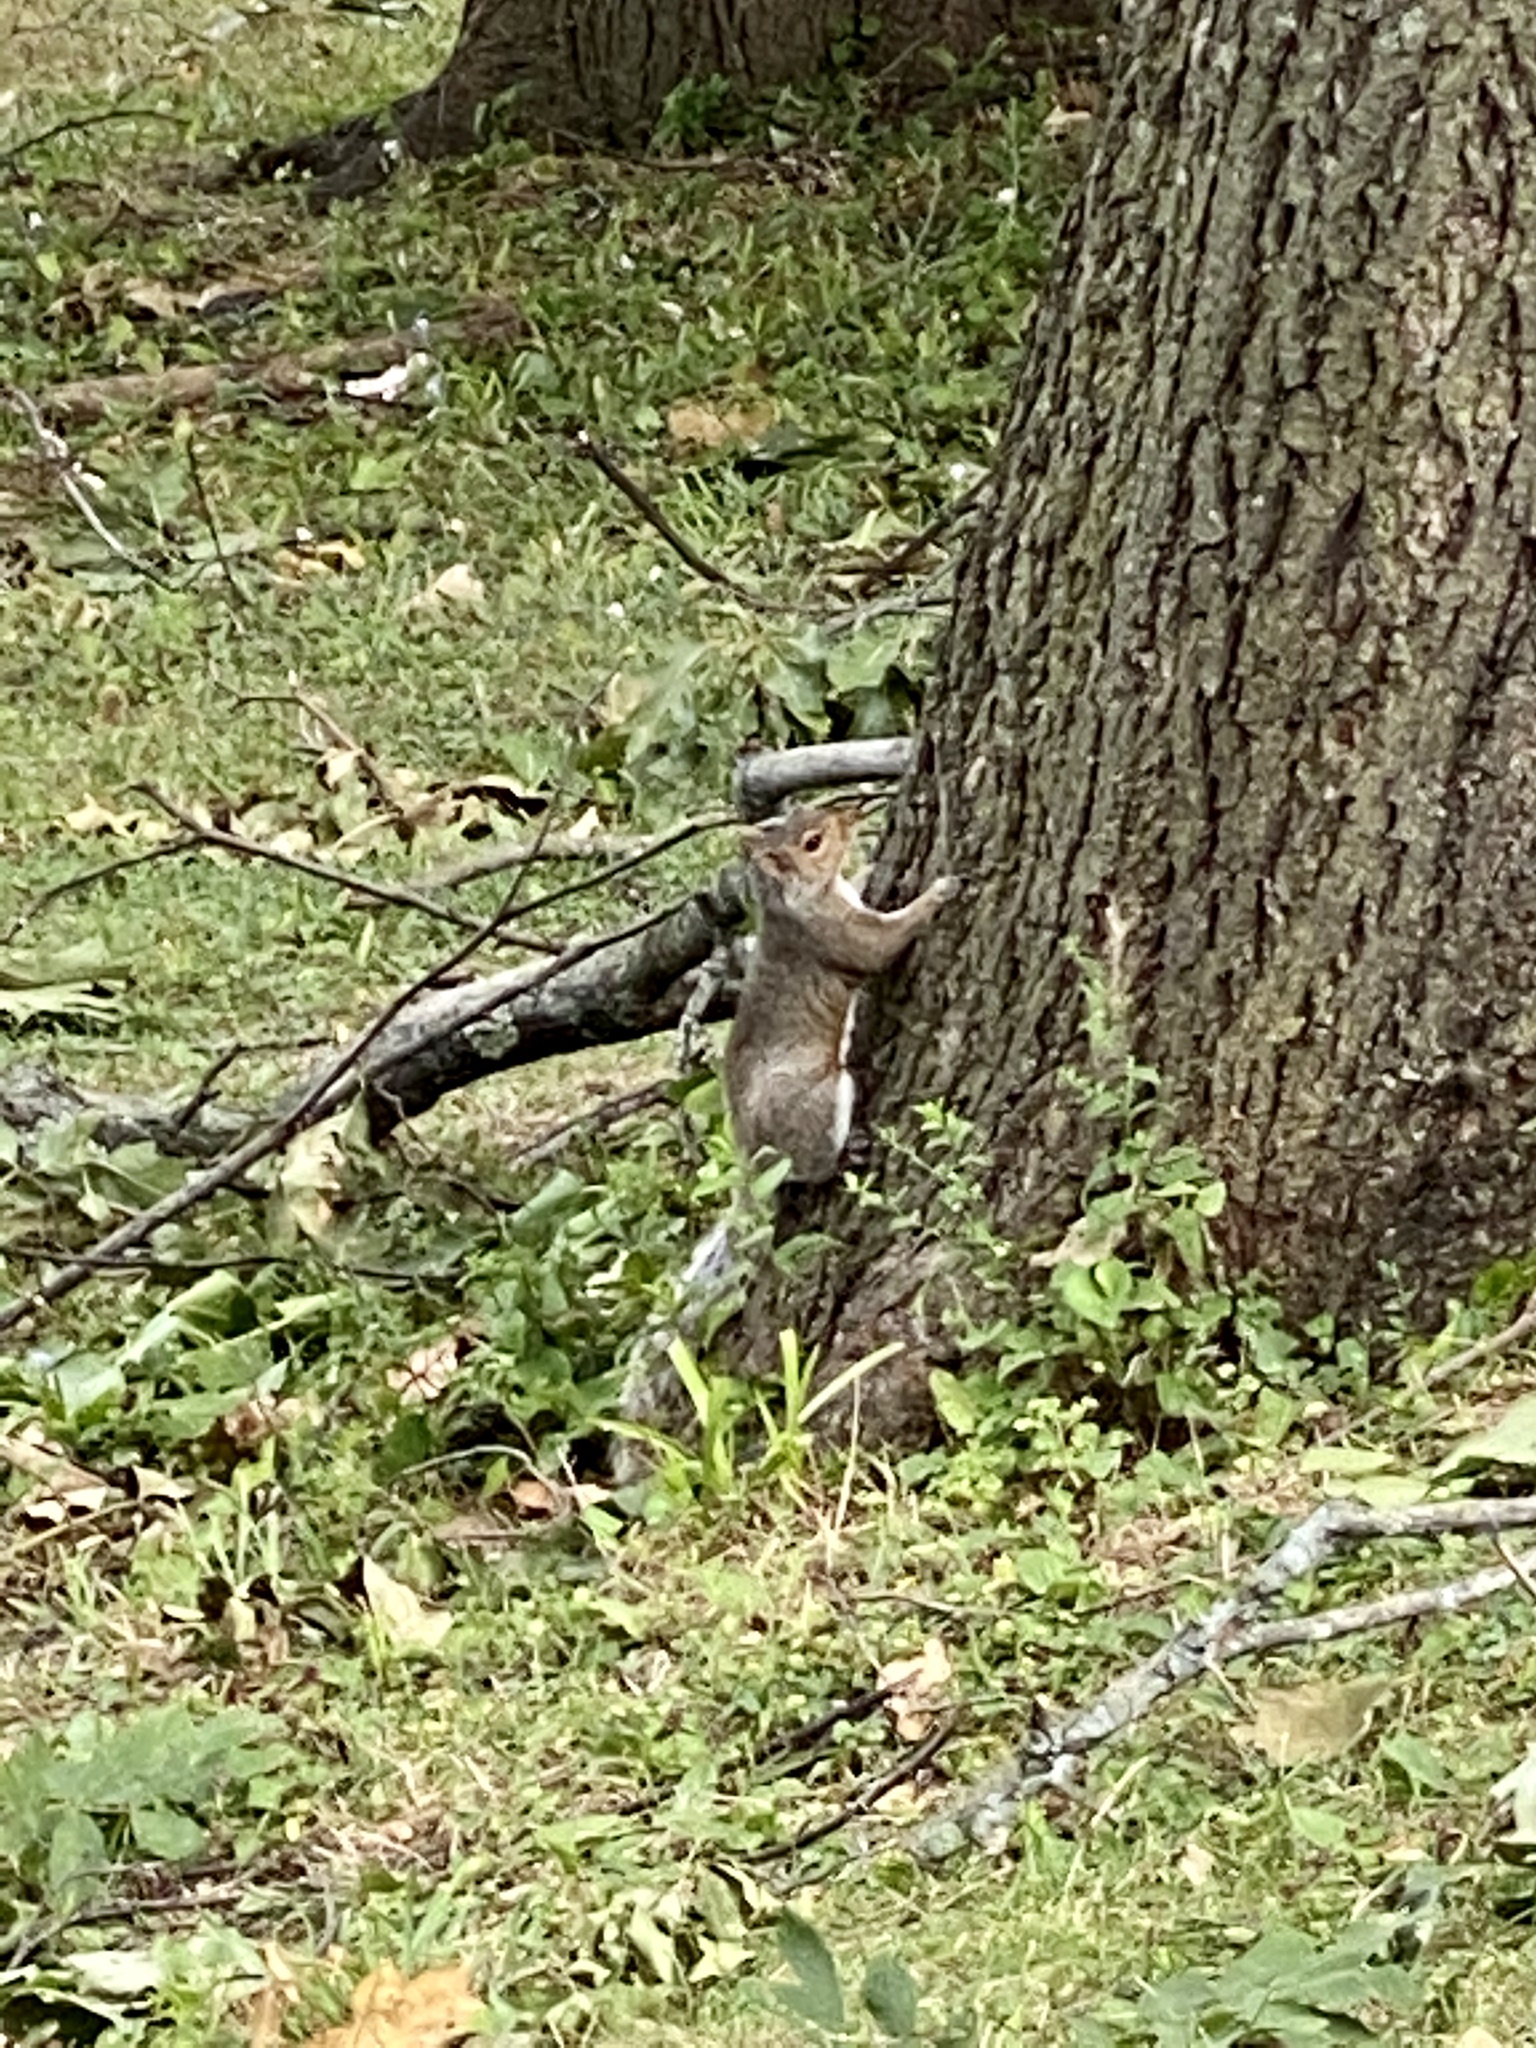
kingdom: Animalia
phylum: Chordata
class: Mammalia
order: Rodentia
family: Sciuridae
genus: Sciurus
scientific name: Sciurus carolinensis
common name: Eastern gray squirrel
